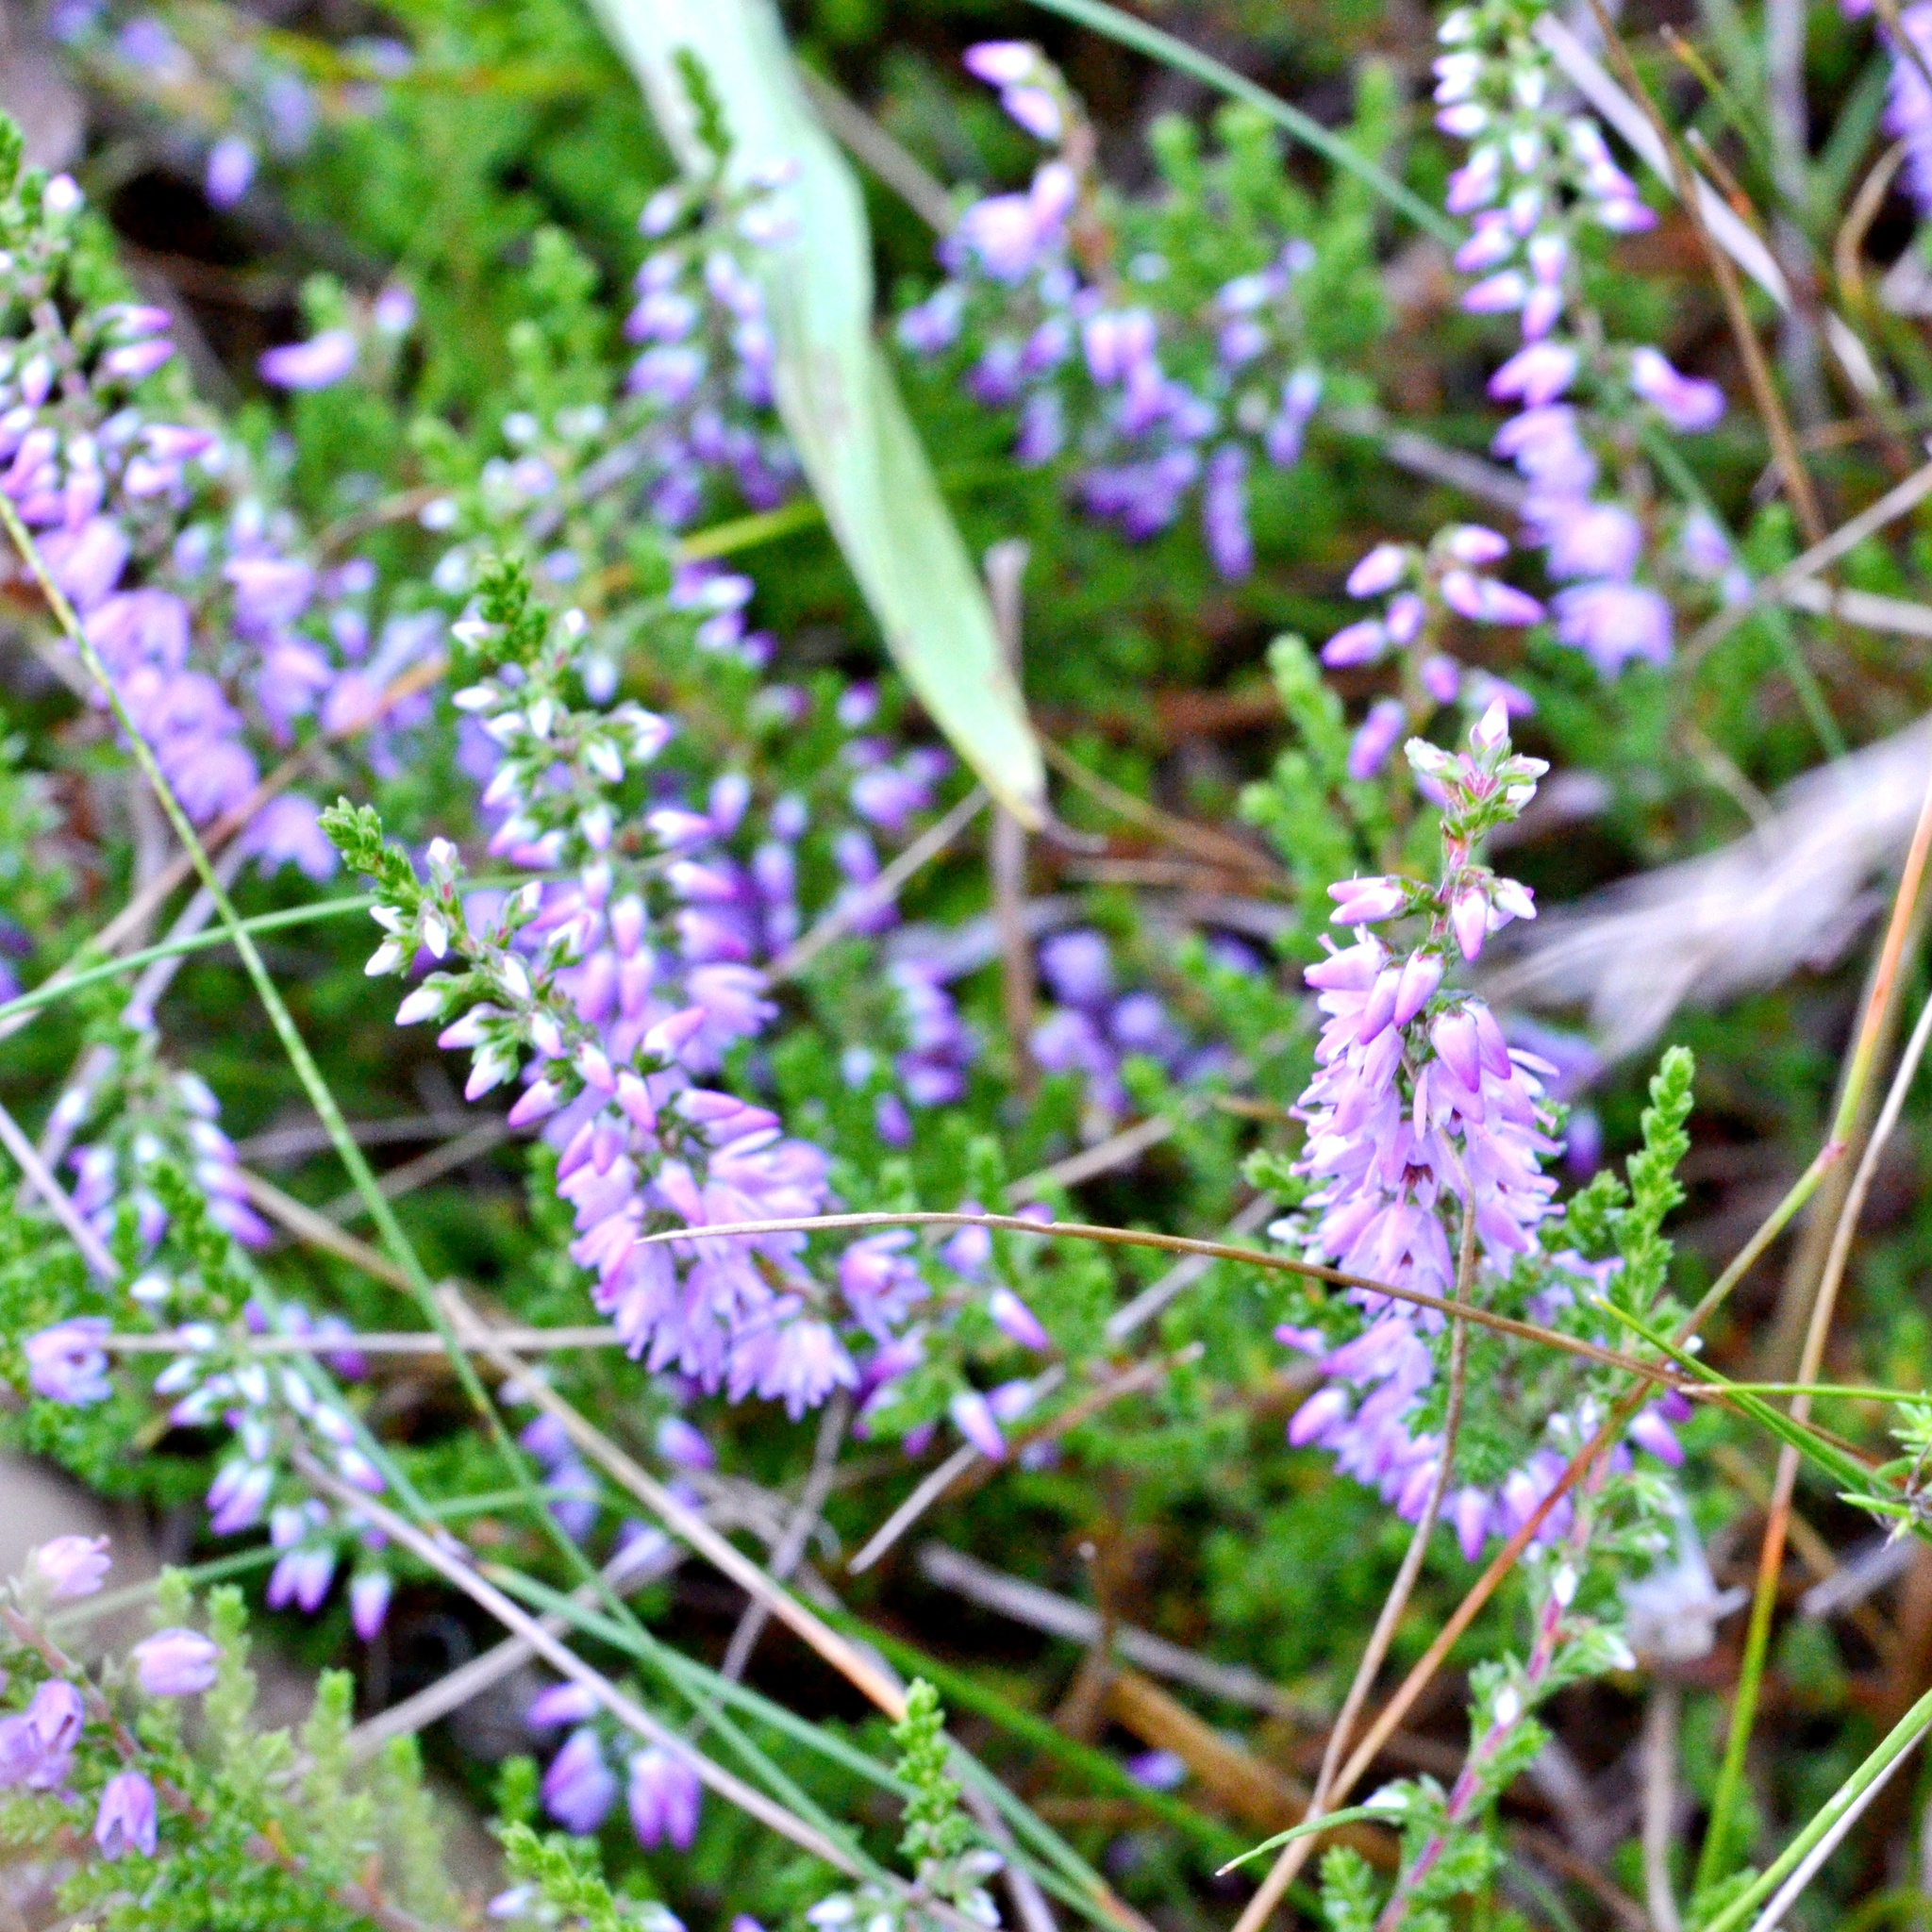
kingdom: Plantae
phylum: Tracheophyta
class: Magnoliopsida
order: Ericales
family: Ericaceae
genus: Calluna
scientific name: Calluna vulgaris
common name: Heather
